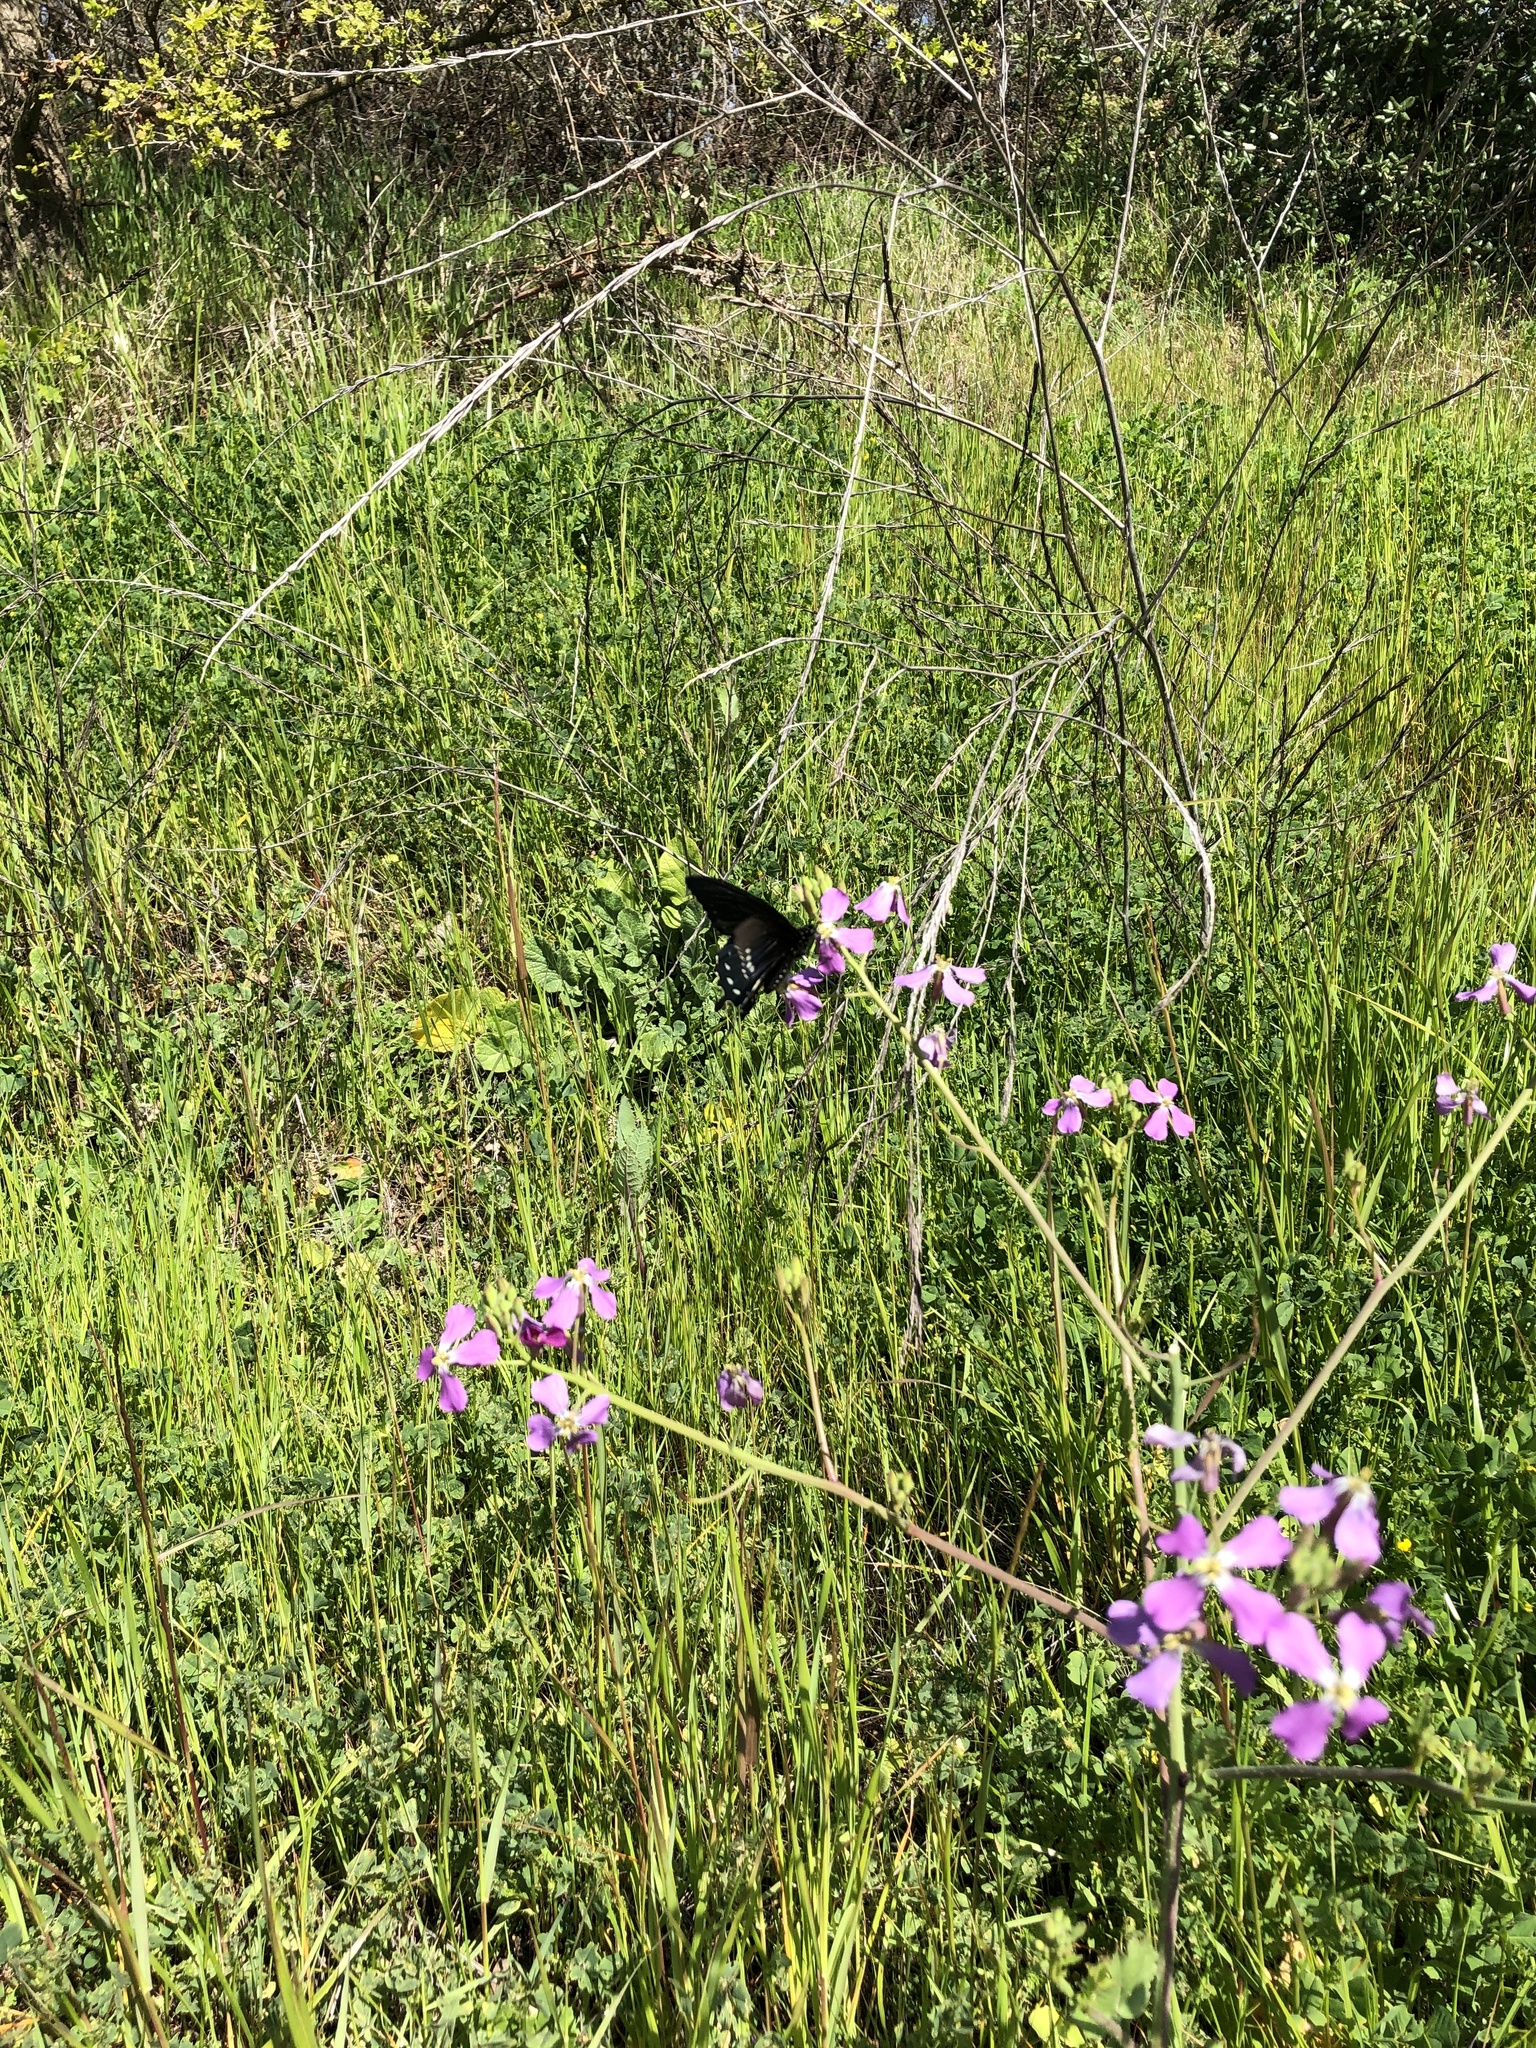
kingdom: Animalia
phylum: Arthropoda
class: Insecta
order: Lepidoptera
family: Papilionidae
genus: Battus
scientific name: Battus philenor
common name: Pipevine swallowtail
